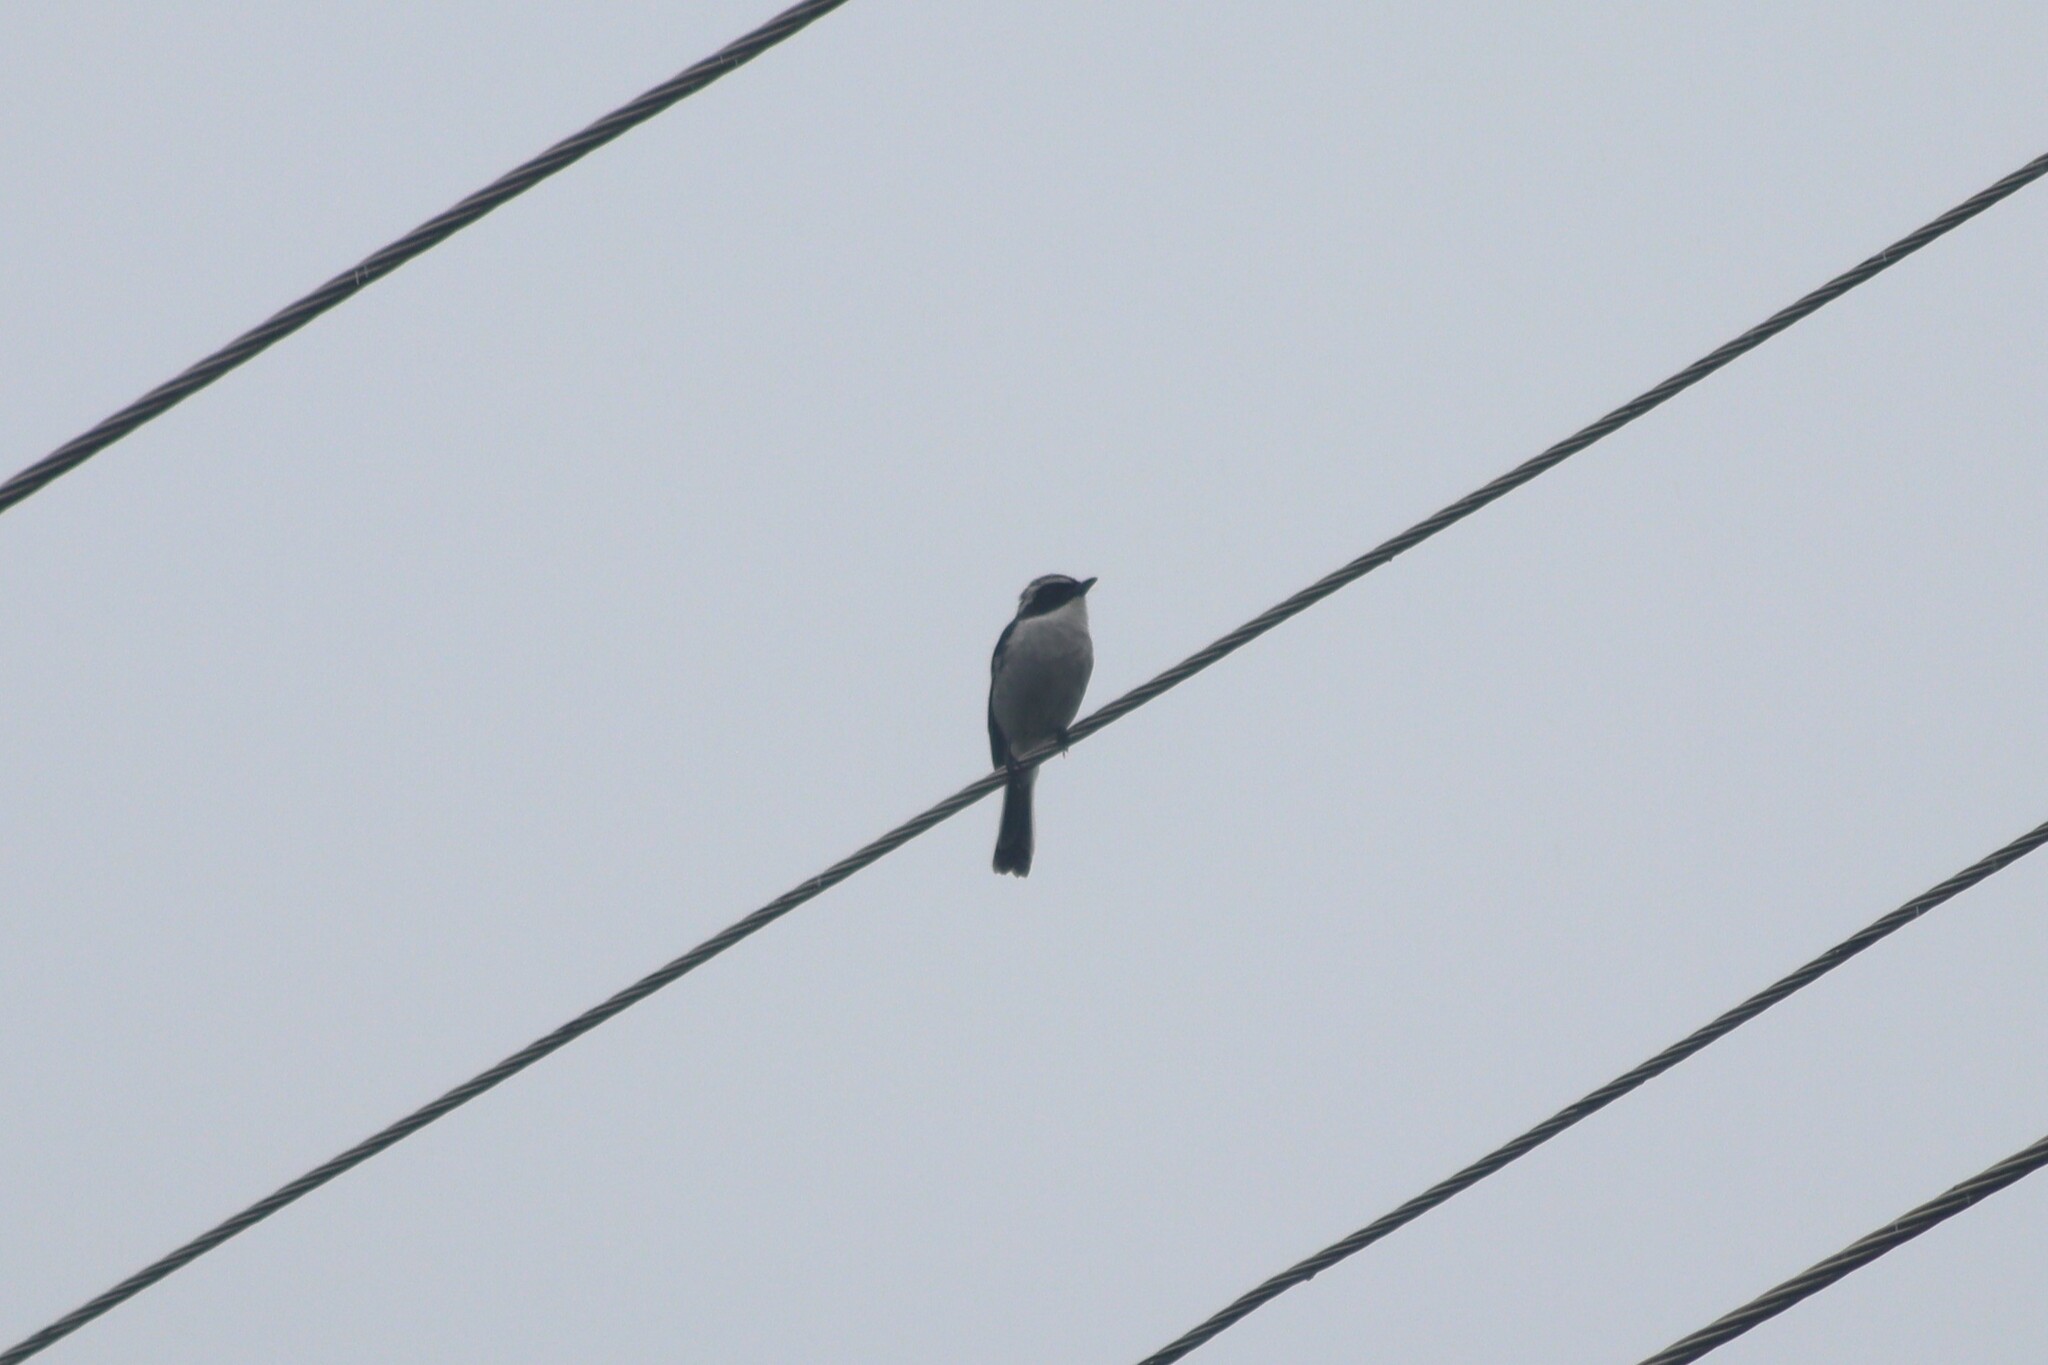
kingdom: Animalia
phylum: Chordata
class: Aves
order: Passeriformes
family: Muscicapidae
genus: Saxicola
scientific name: Saxicola ferreus
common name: Grey bush chat
